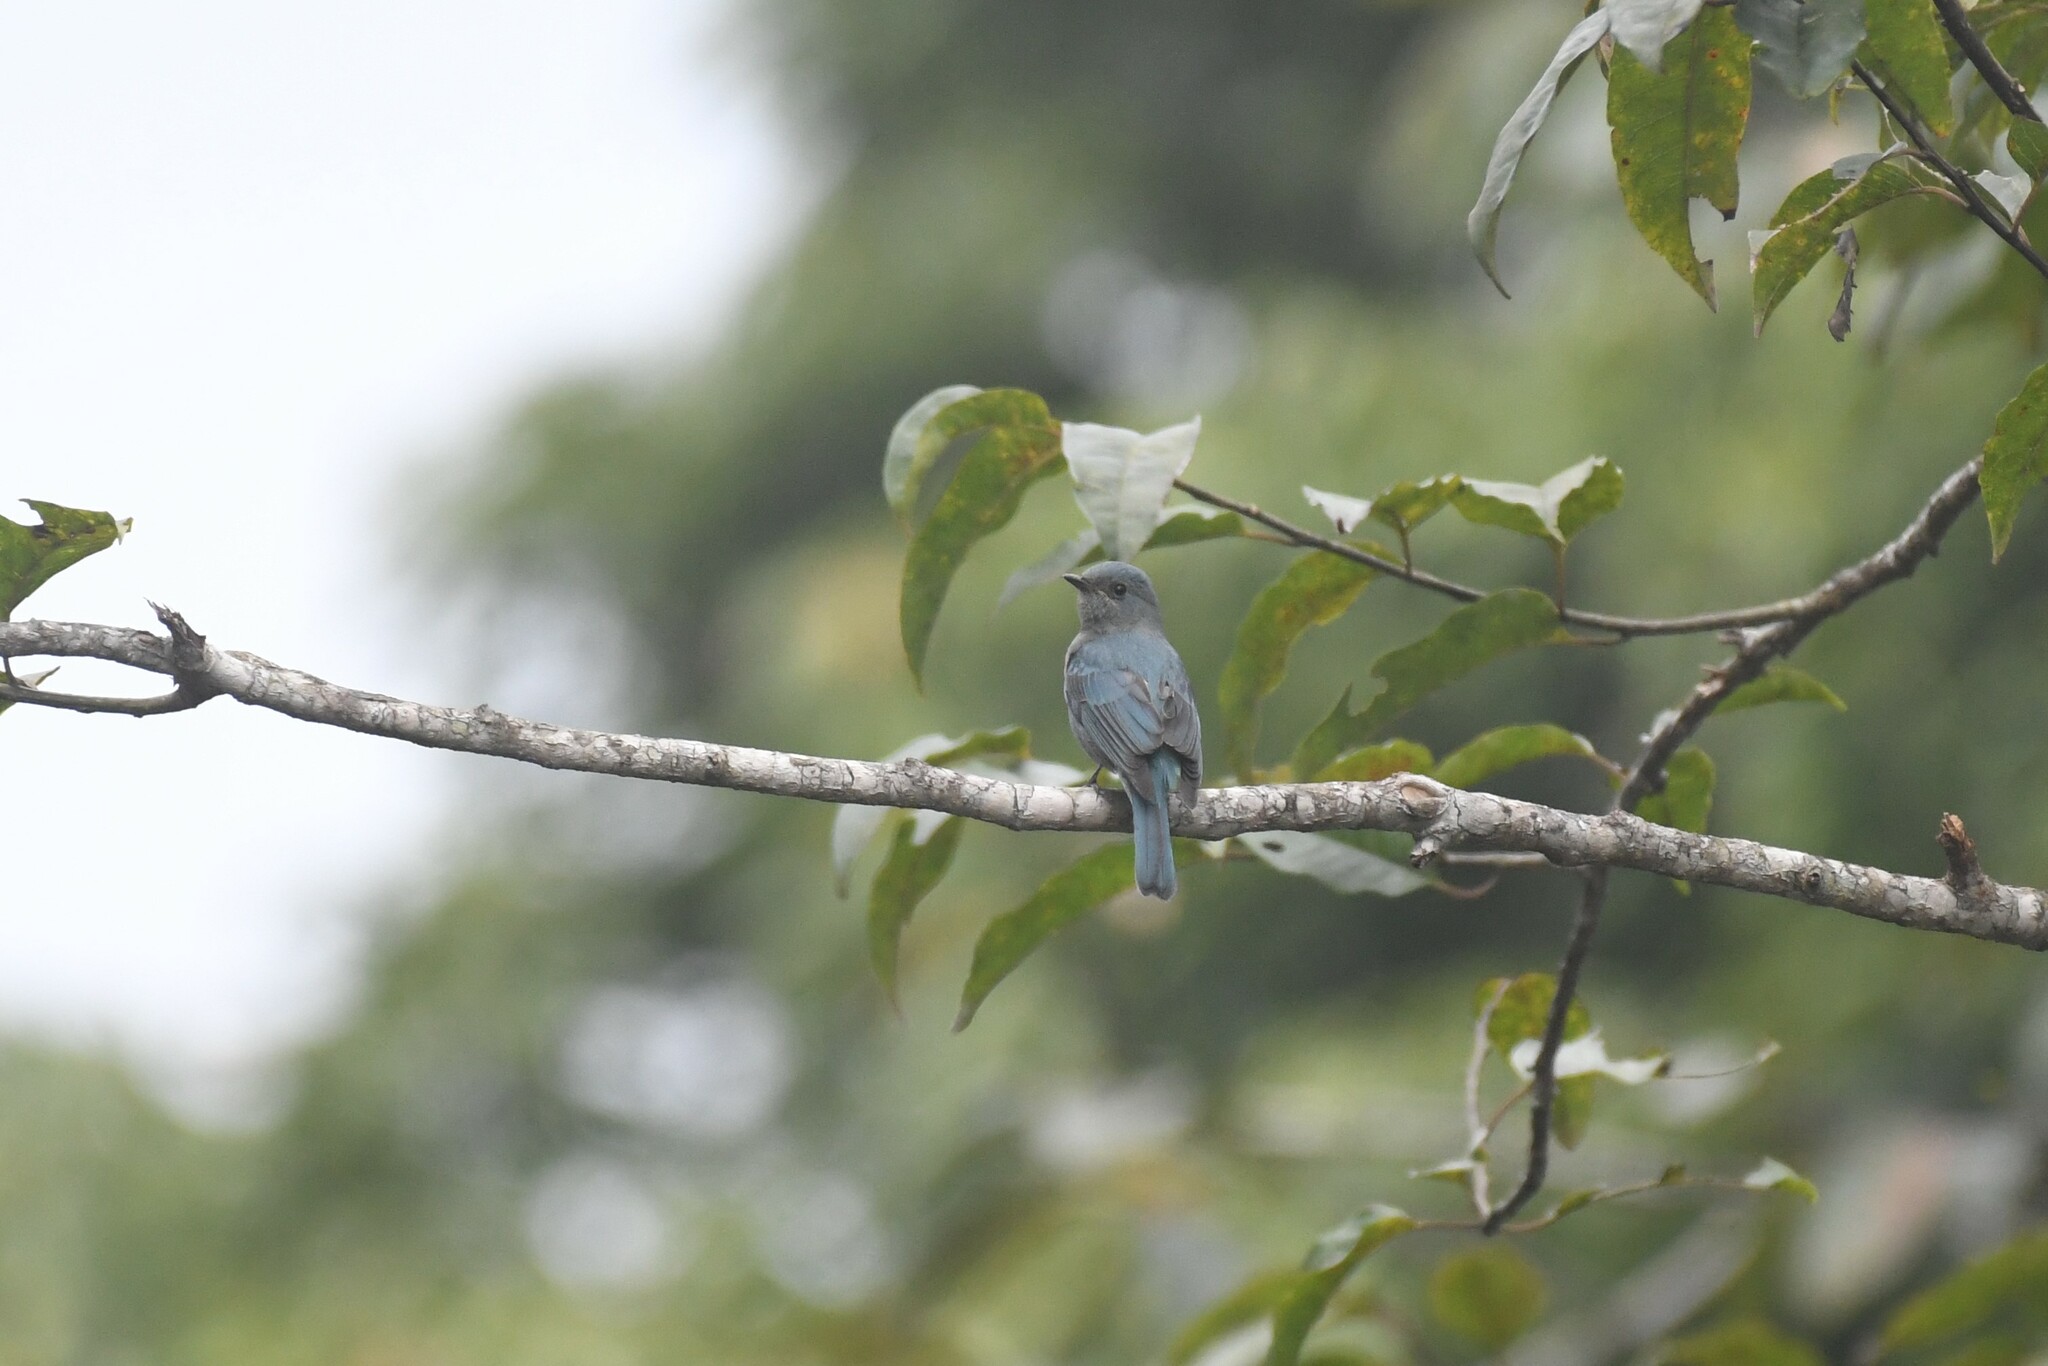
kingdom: Animalia
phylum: Chordata
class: Aves
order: Passeriformes
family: Muscicapidae
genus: Eumyias
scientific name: Eumyias thalassinus
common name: Verditer flycatcher
